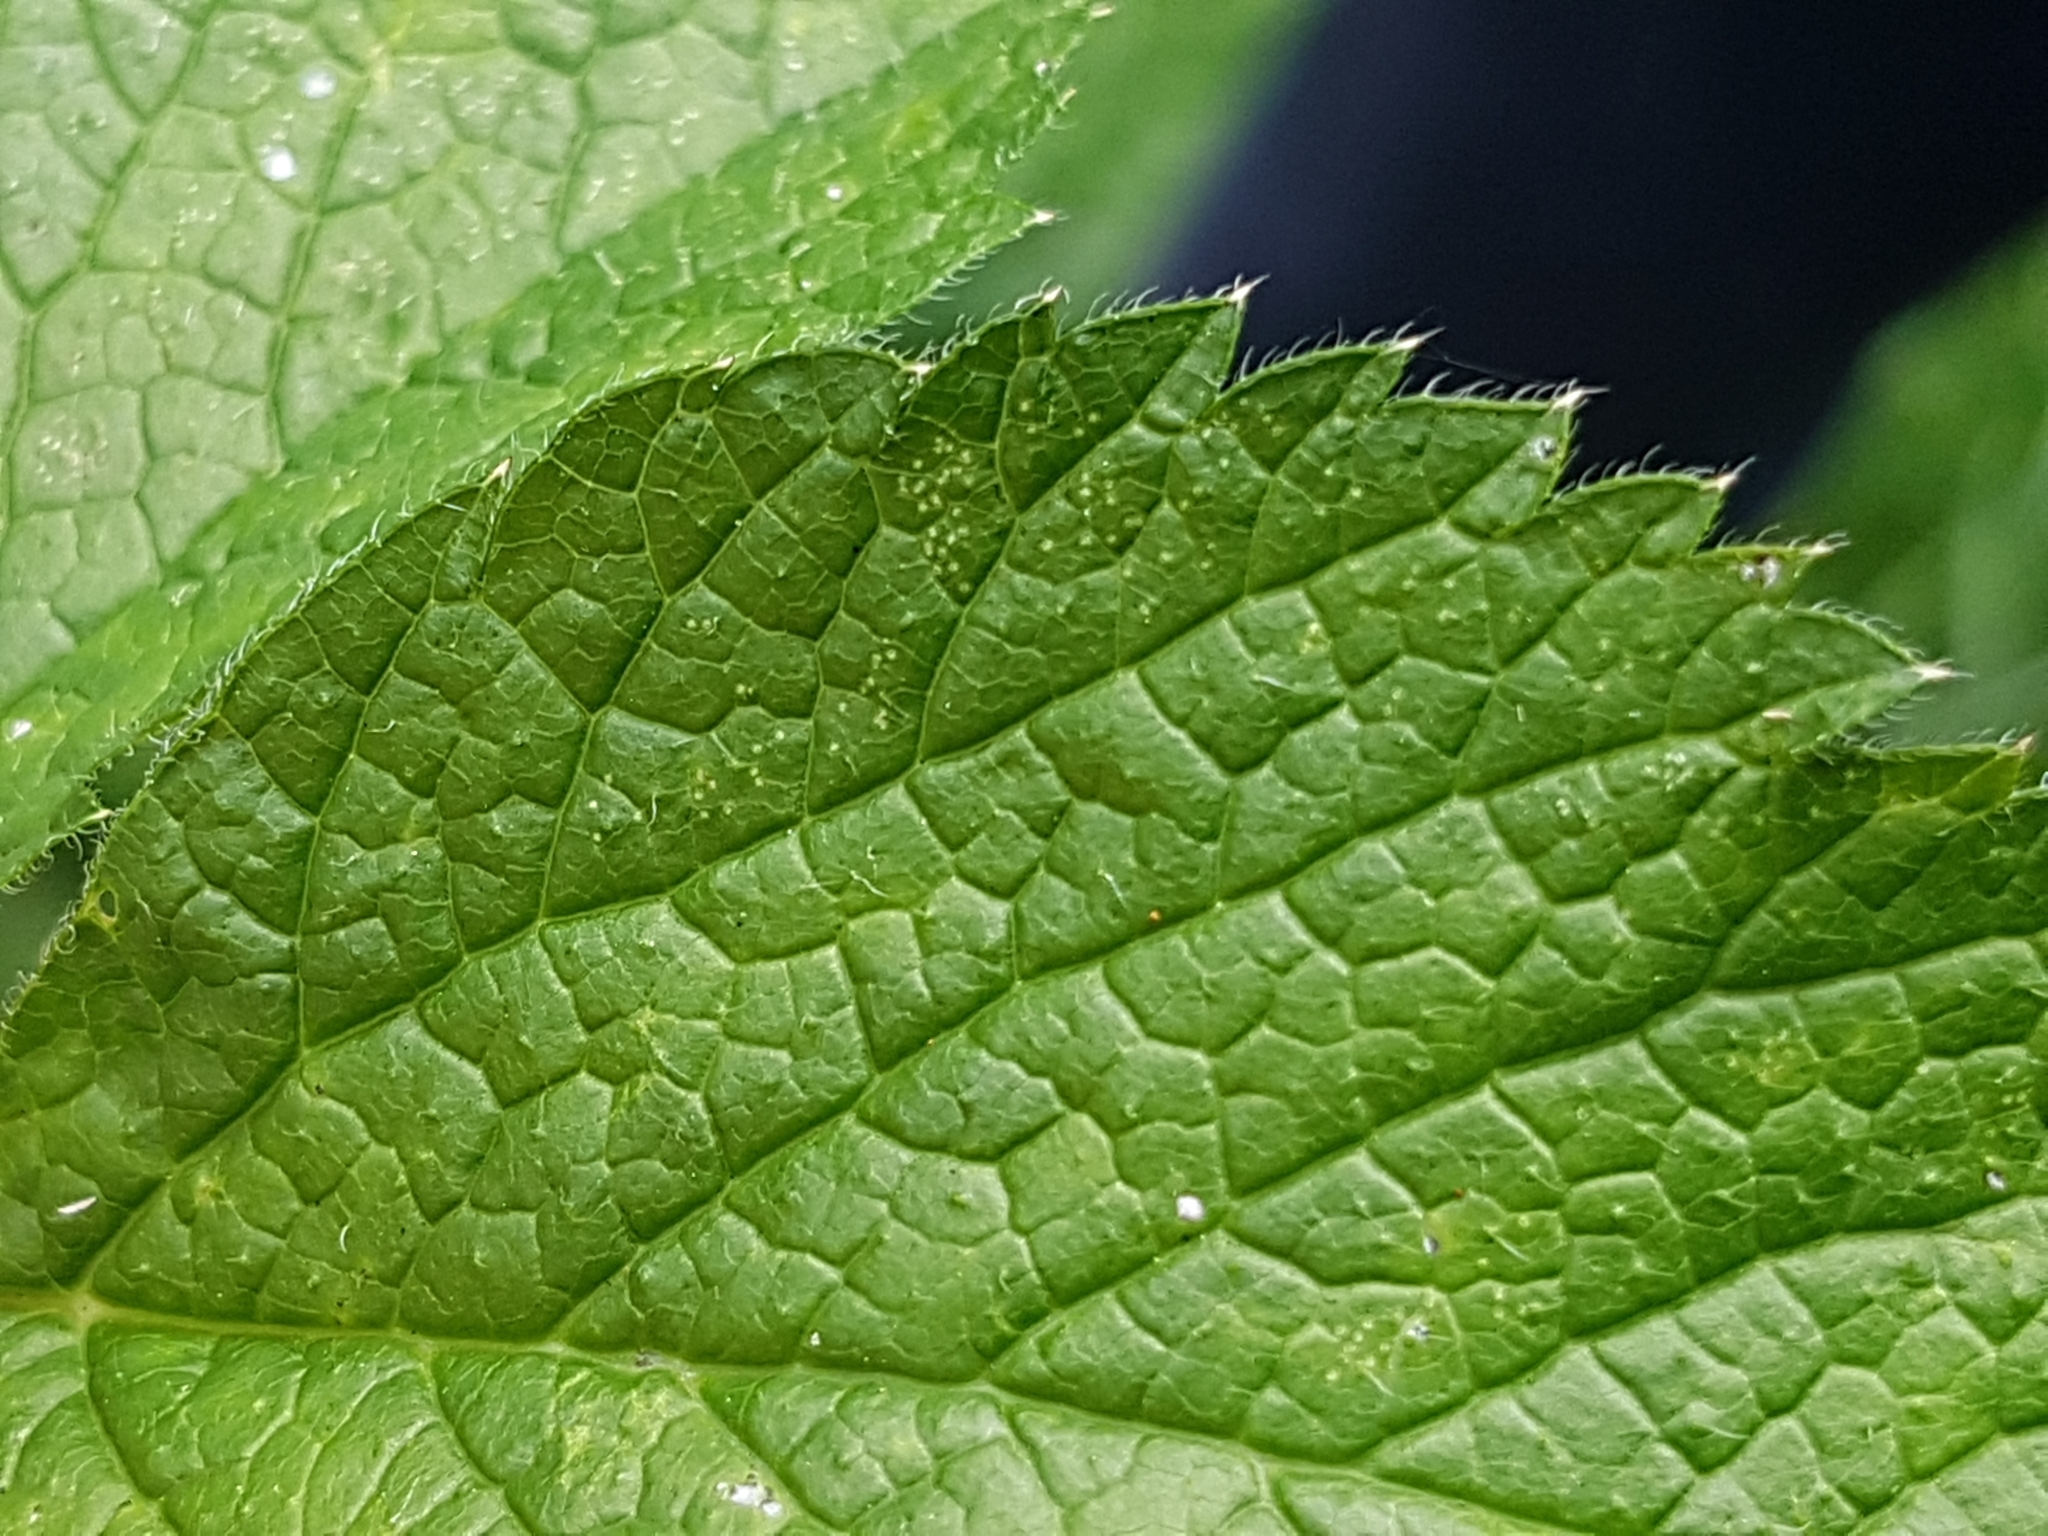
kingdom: Plantae
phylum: Tracheophyta
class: Magnoliopsida
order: Apiales
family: Apiaceae
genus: Chaerophyllum
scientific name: Chaerophyllum aromaticum
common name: Broadleaf chervil
